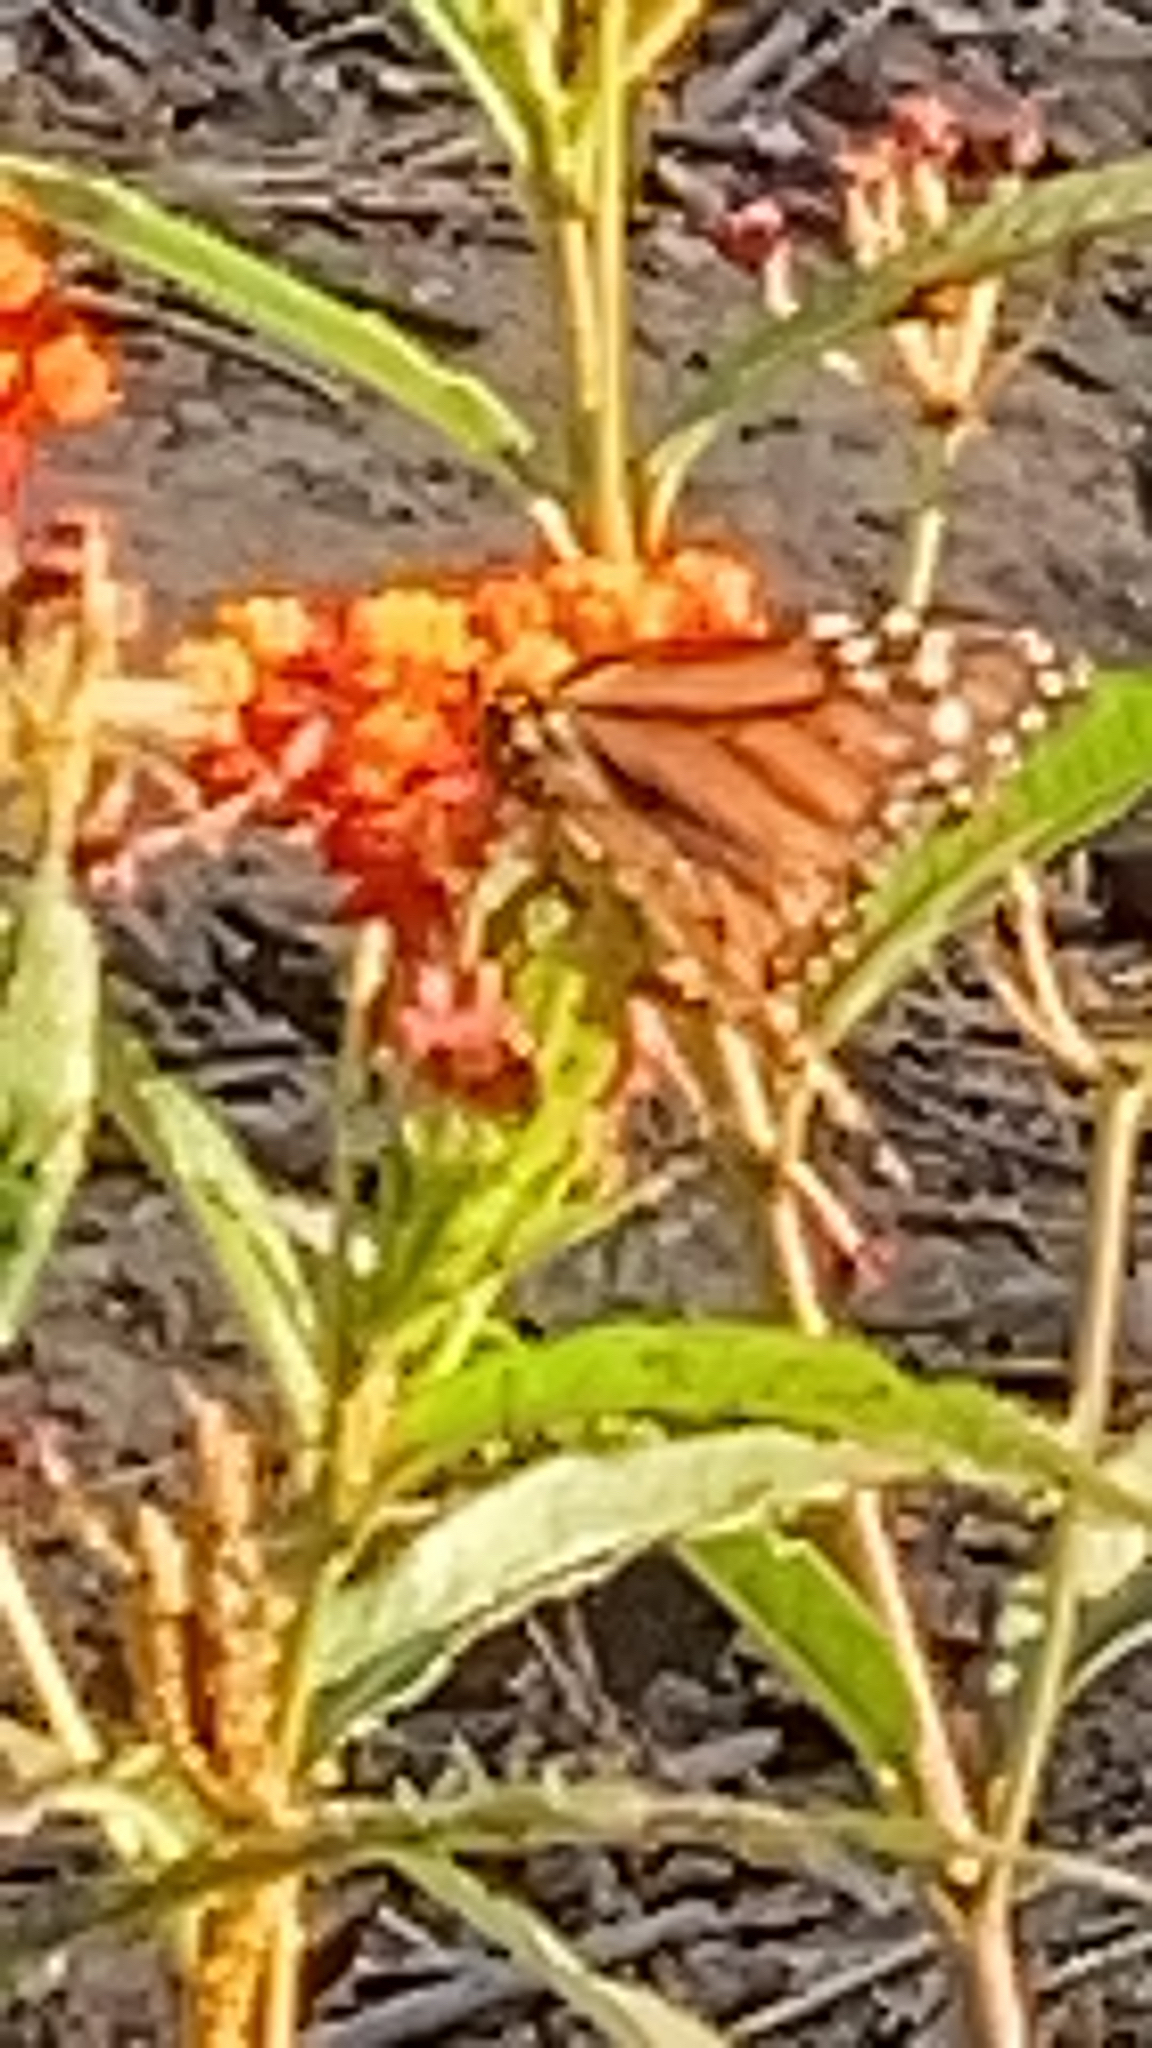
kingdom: Animalia
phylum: Arthropoda
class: Insecta
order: Lepidoptera
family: Nymphalidae
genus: Danaus
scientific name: Danaus plexippus
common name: Monarch
